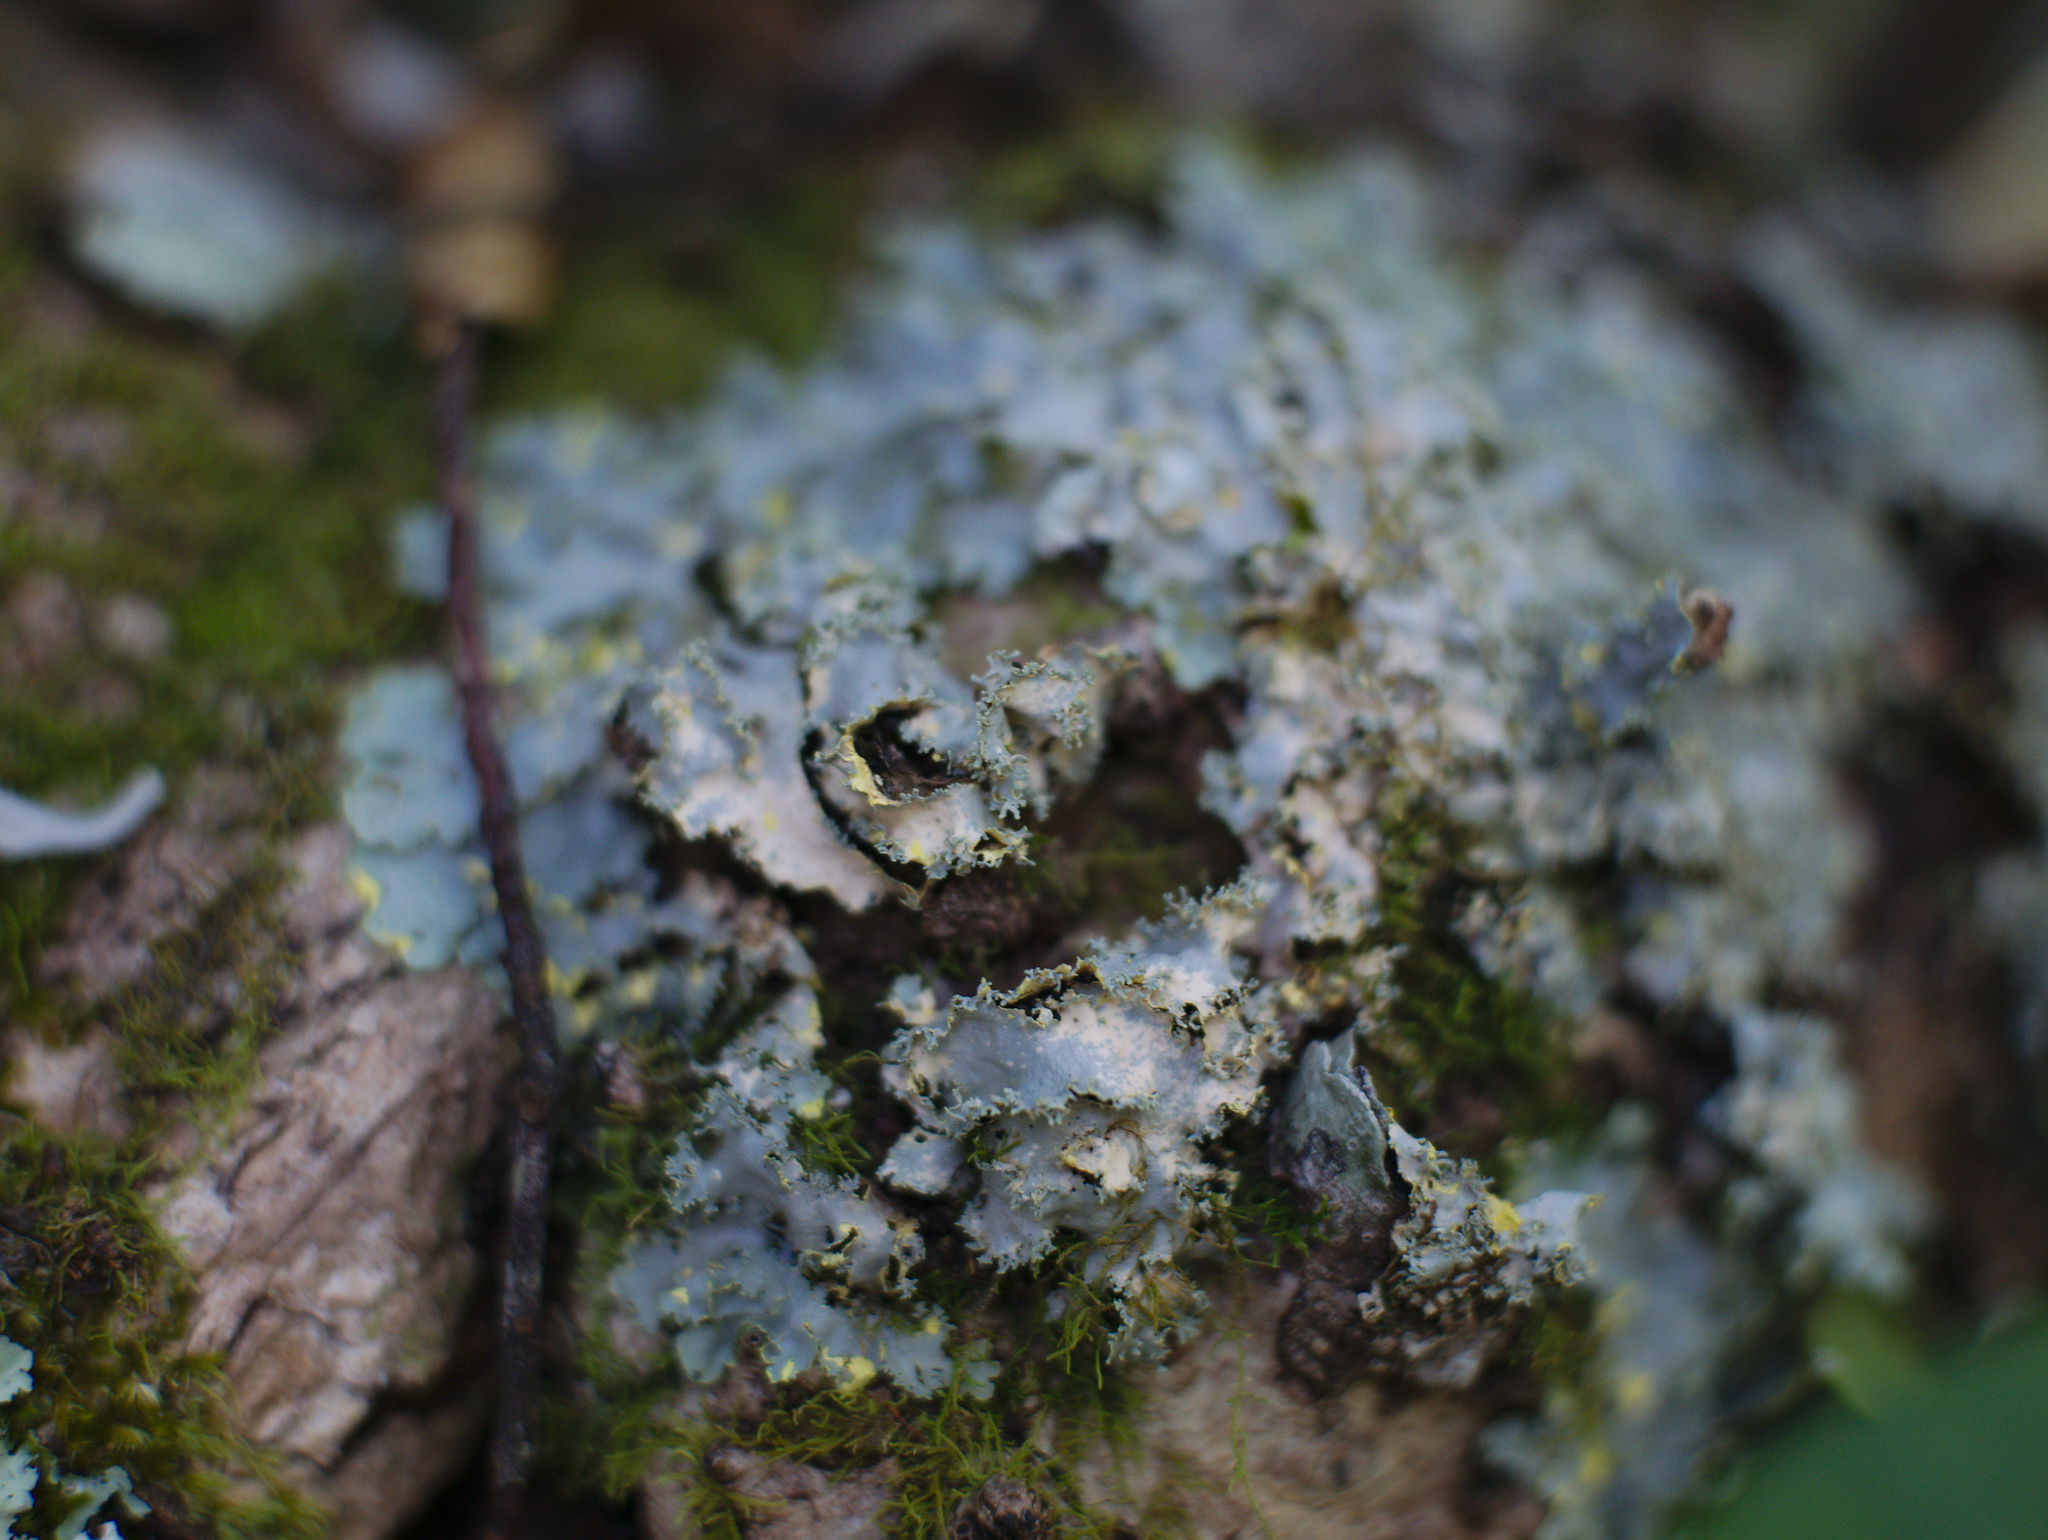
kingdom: Fungi
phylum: Ascomycota
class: Lecanoromycetes
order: Peltigerales
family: Lobariaceae
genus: Podostictina
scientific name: Podostictina pickeringii
